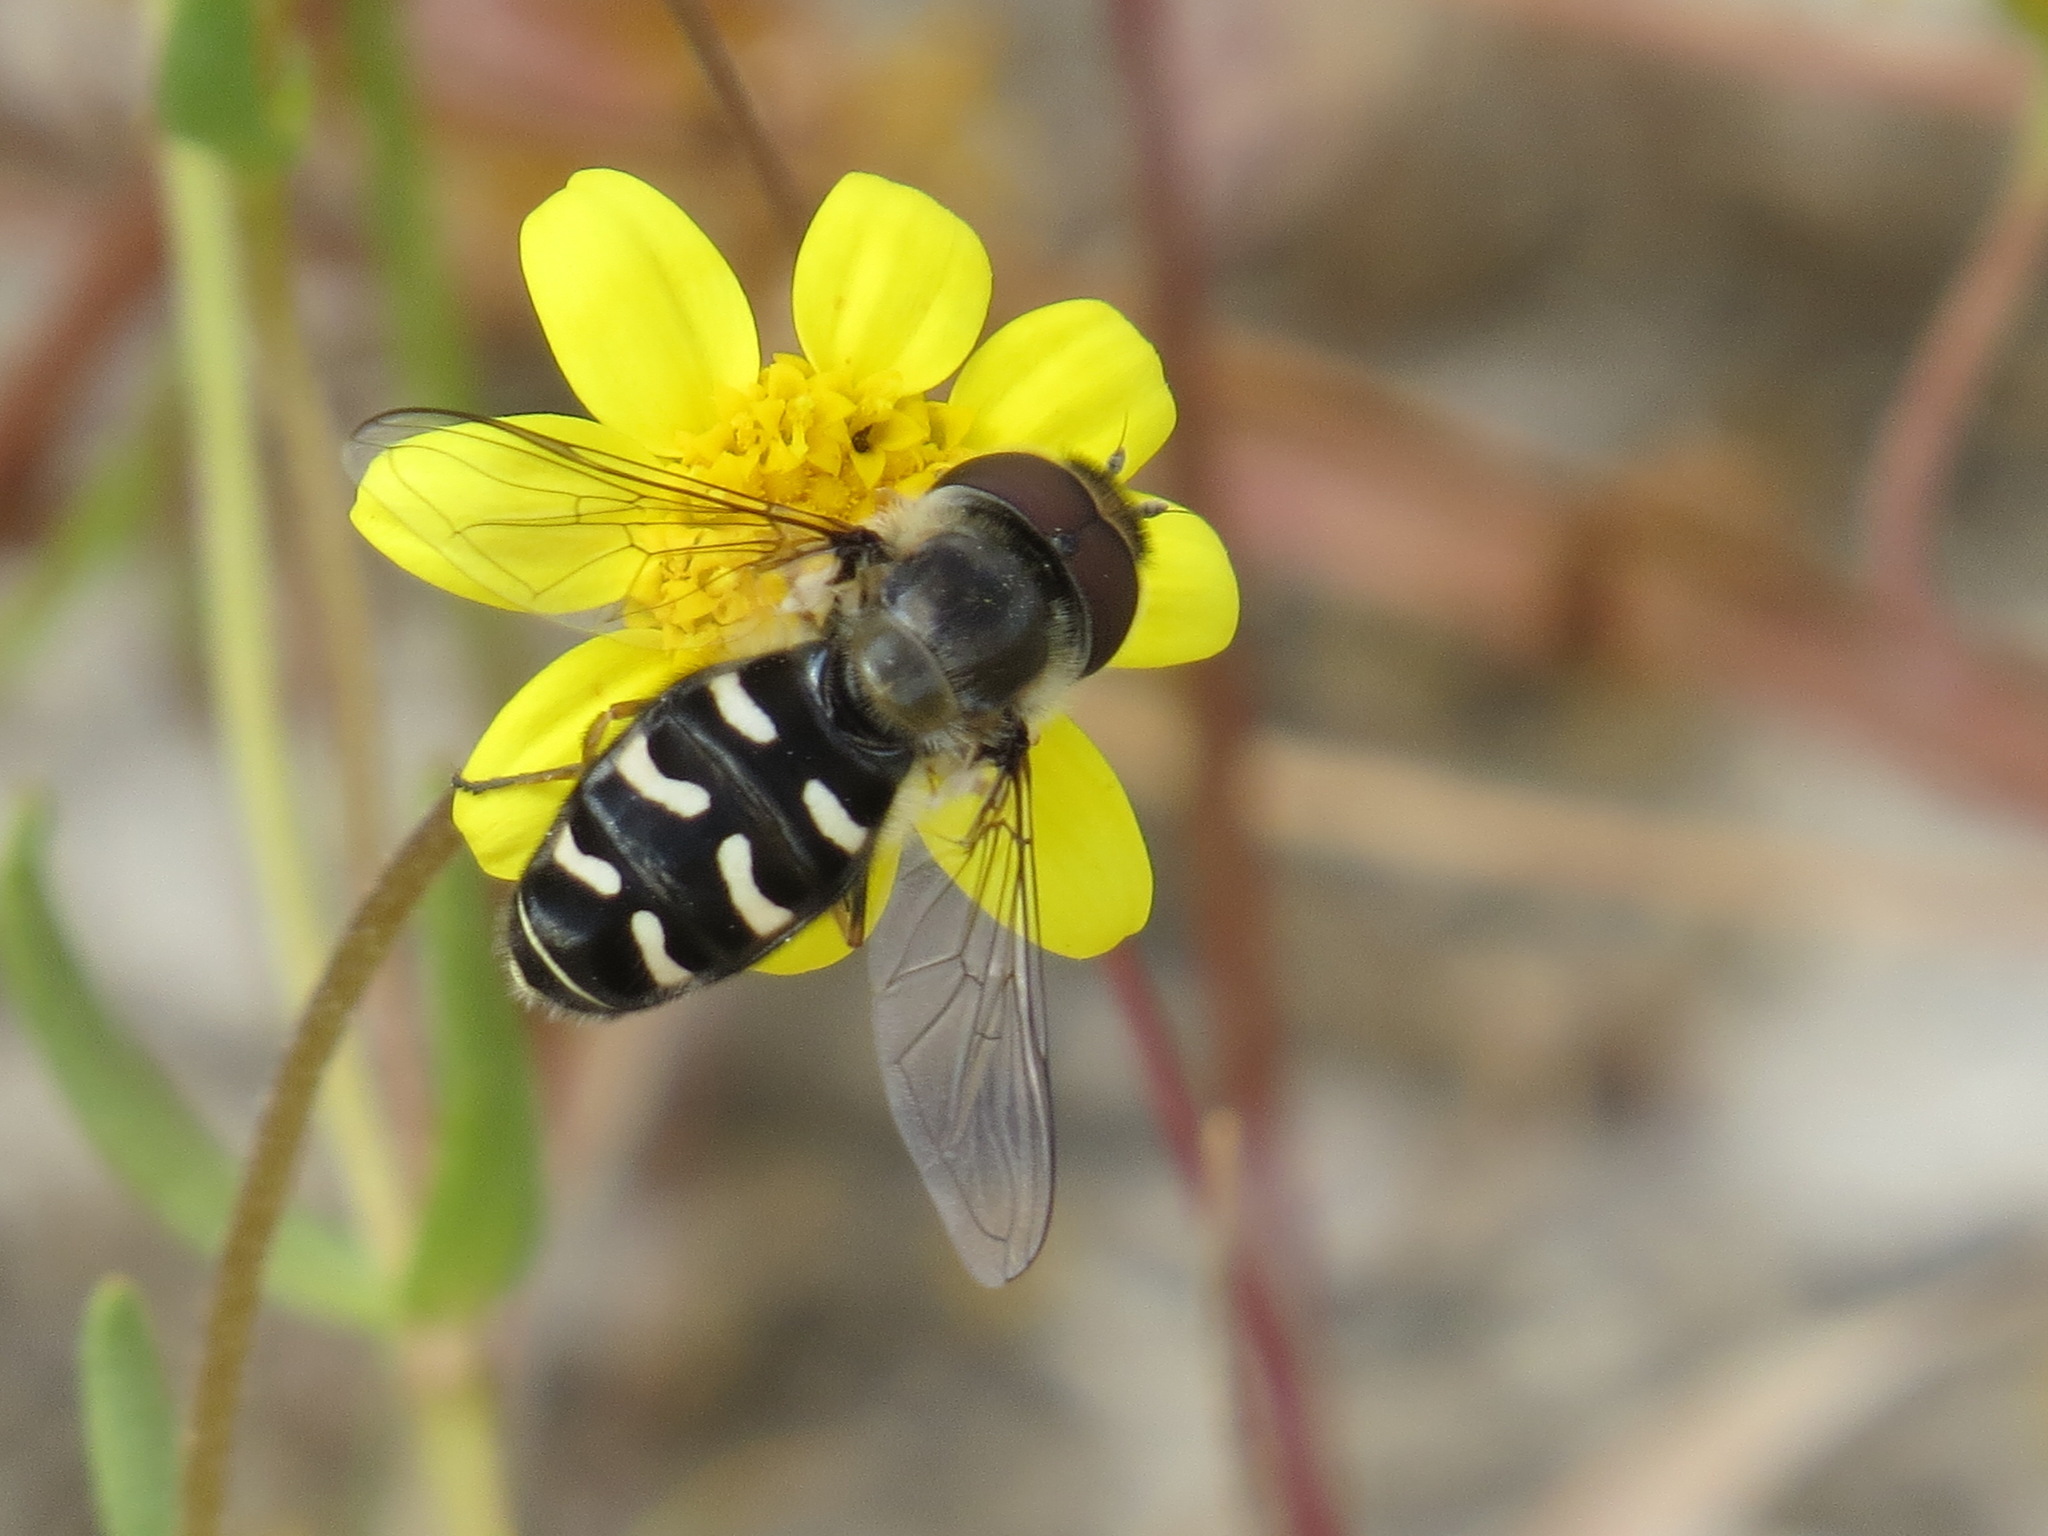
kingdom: Animalia
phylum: Arthropoda
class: Insecta
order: Diptera
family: Syrphidae
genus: Scaeva
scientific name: Scaeva affinis
